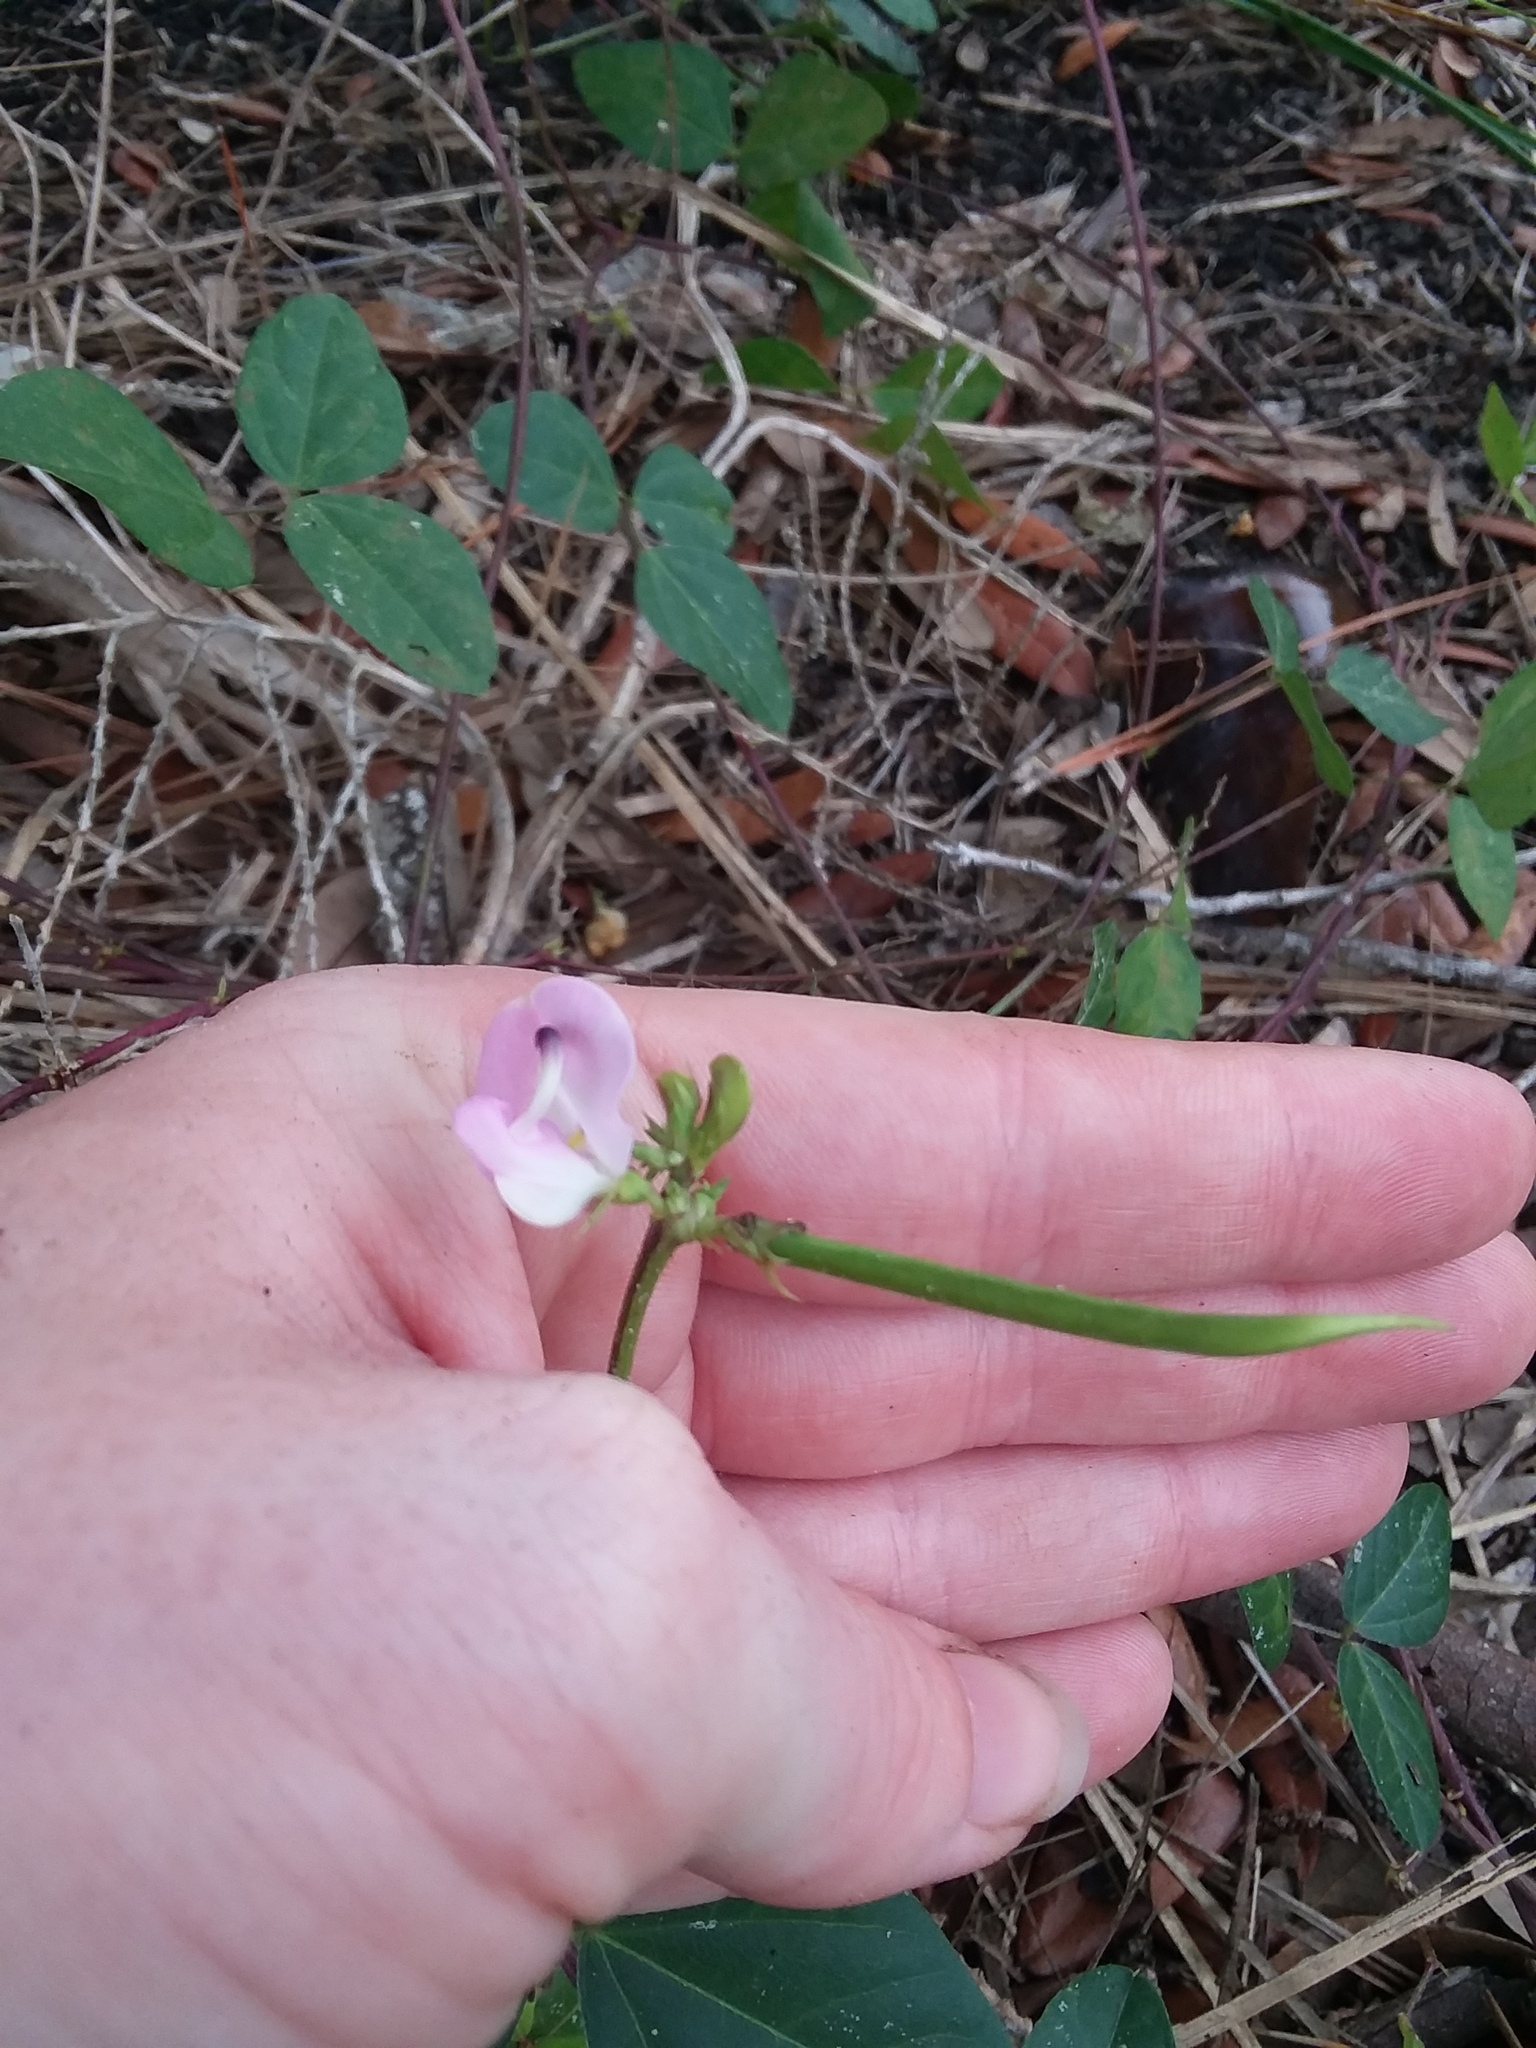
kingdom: Plantae
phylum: Tracheophyta
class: Magnoliopsida
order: Fabales
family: Fabaceae
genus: Strophostyles
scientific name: Strophostyles helvola
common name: Trailing wild bean
